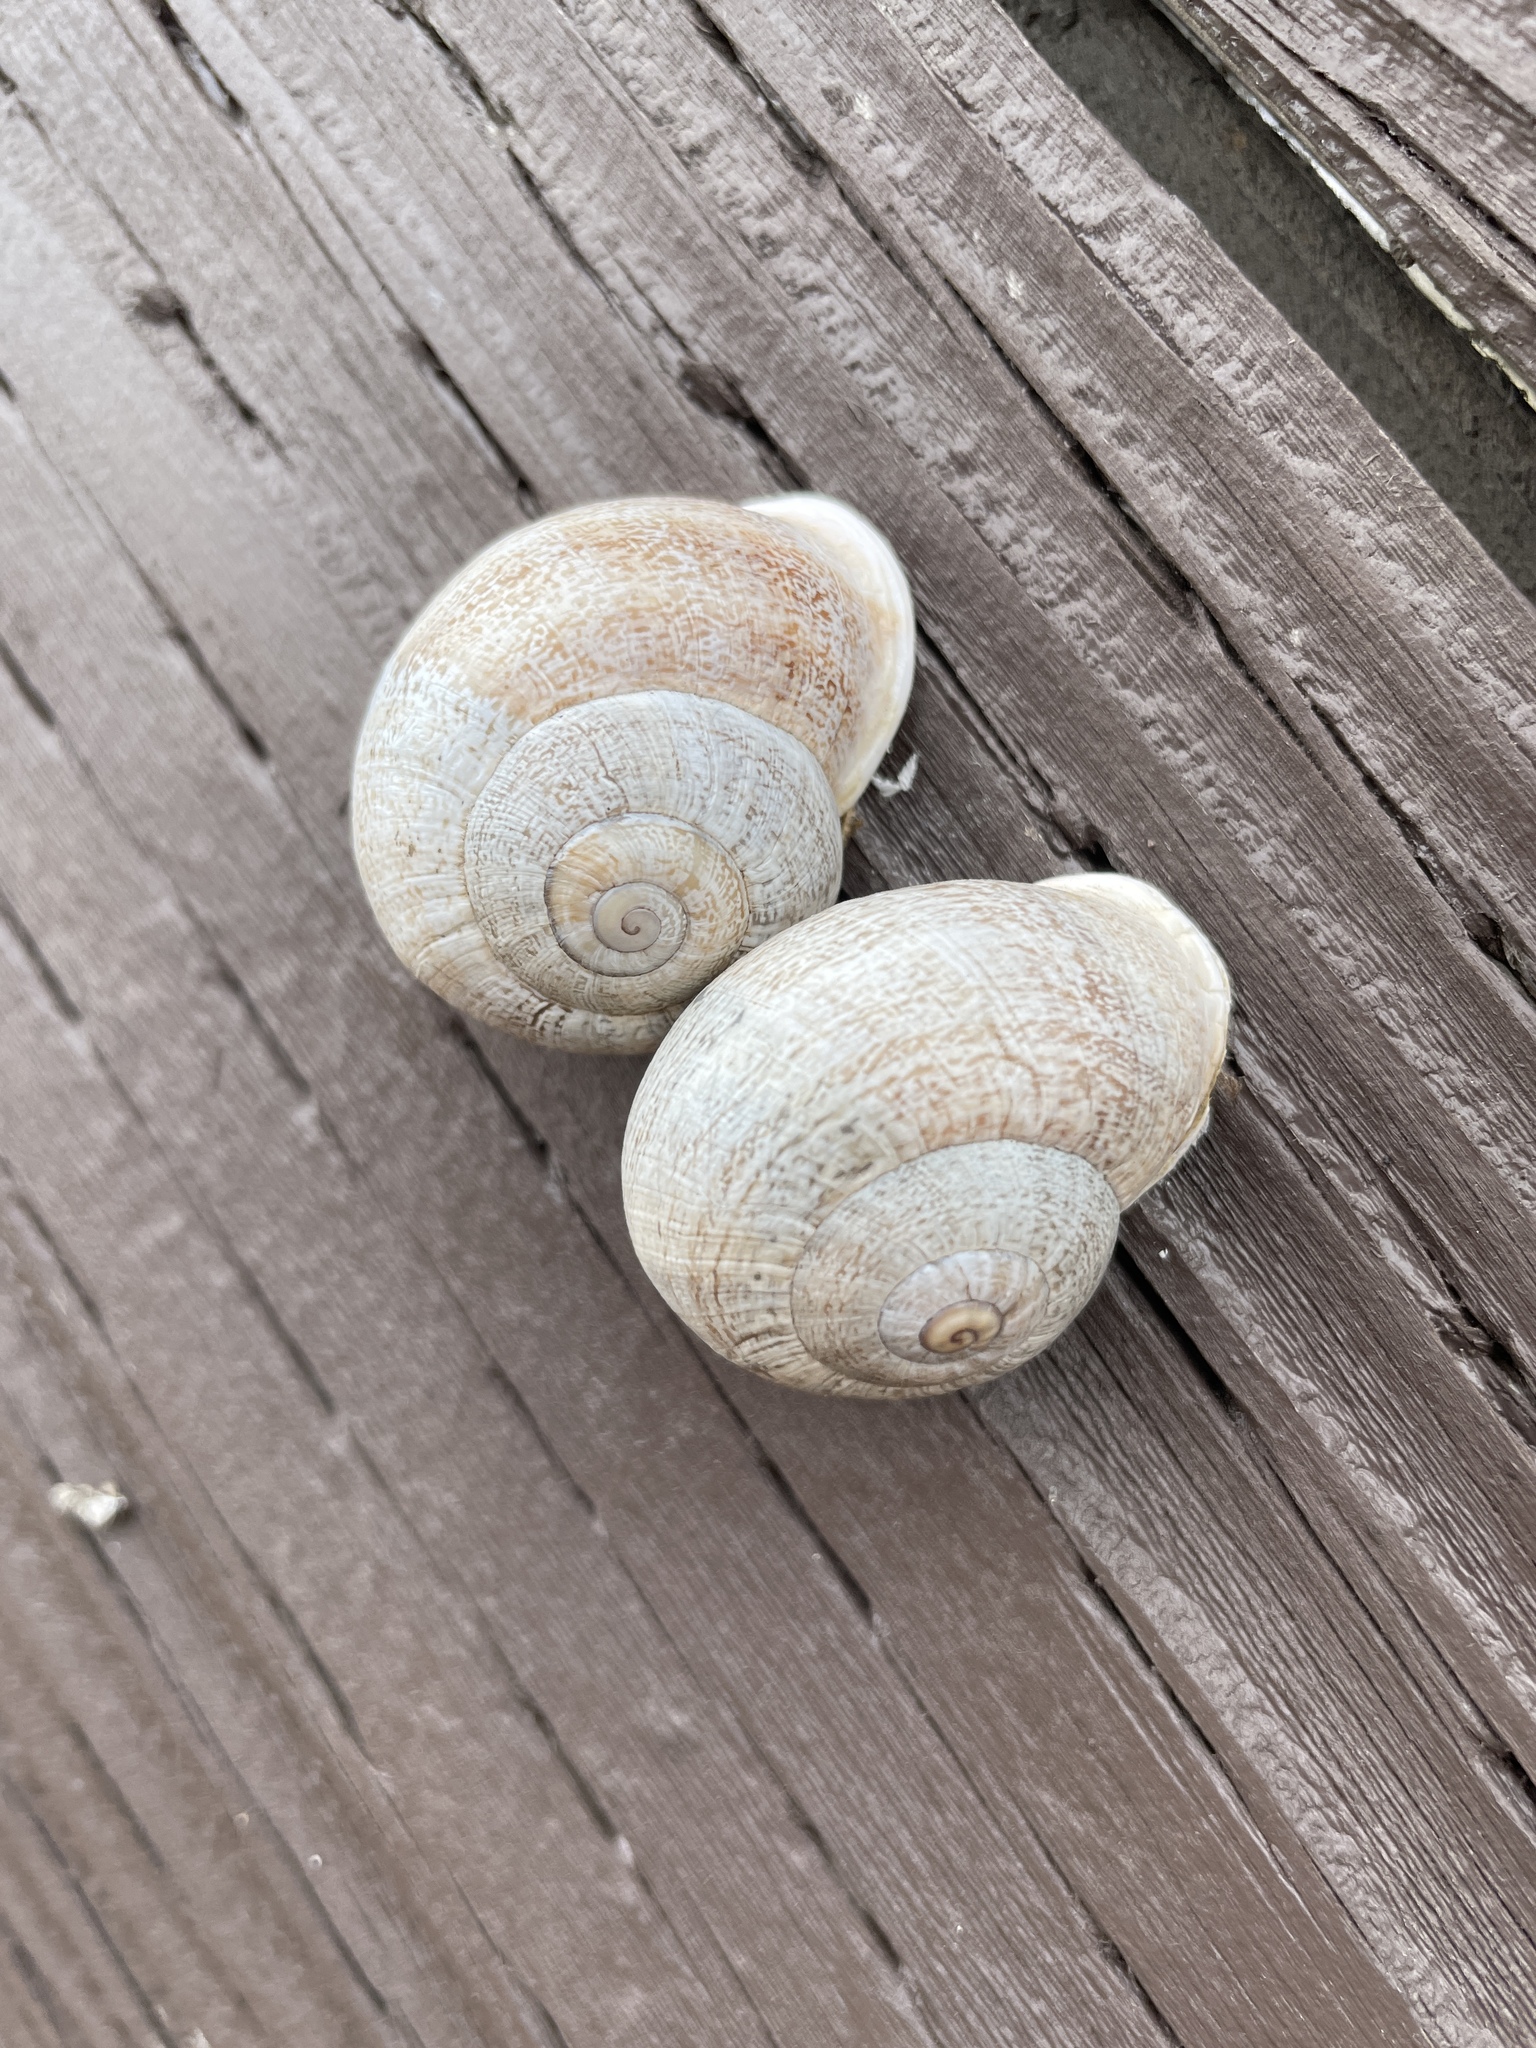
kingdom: Animalia
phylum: Mollusca
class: Gastropoda
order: Stylommatophora
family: Helicidae
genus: Otala
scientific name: Otala lactea
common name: Milk snail
